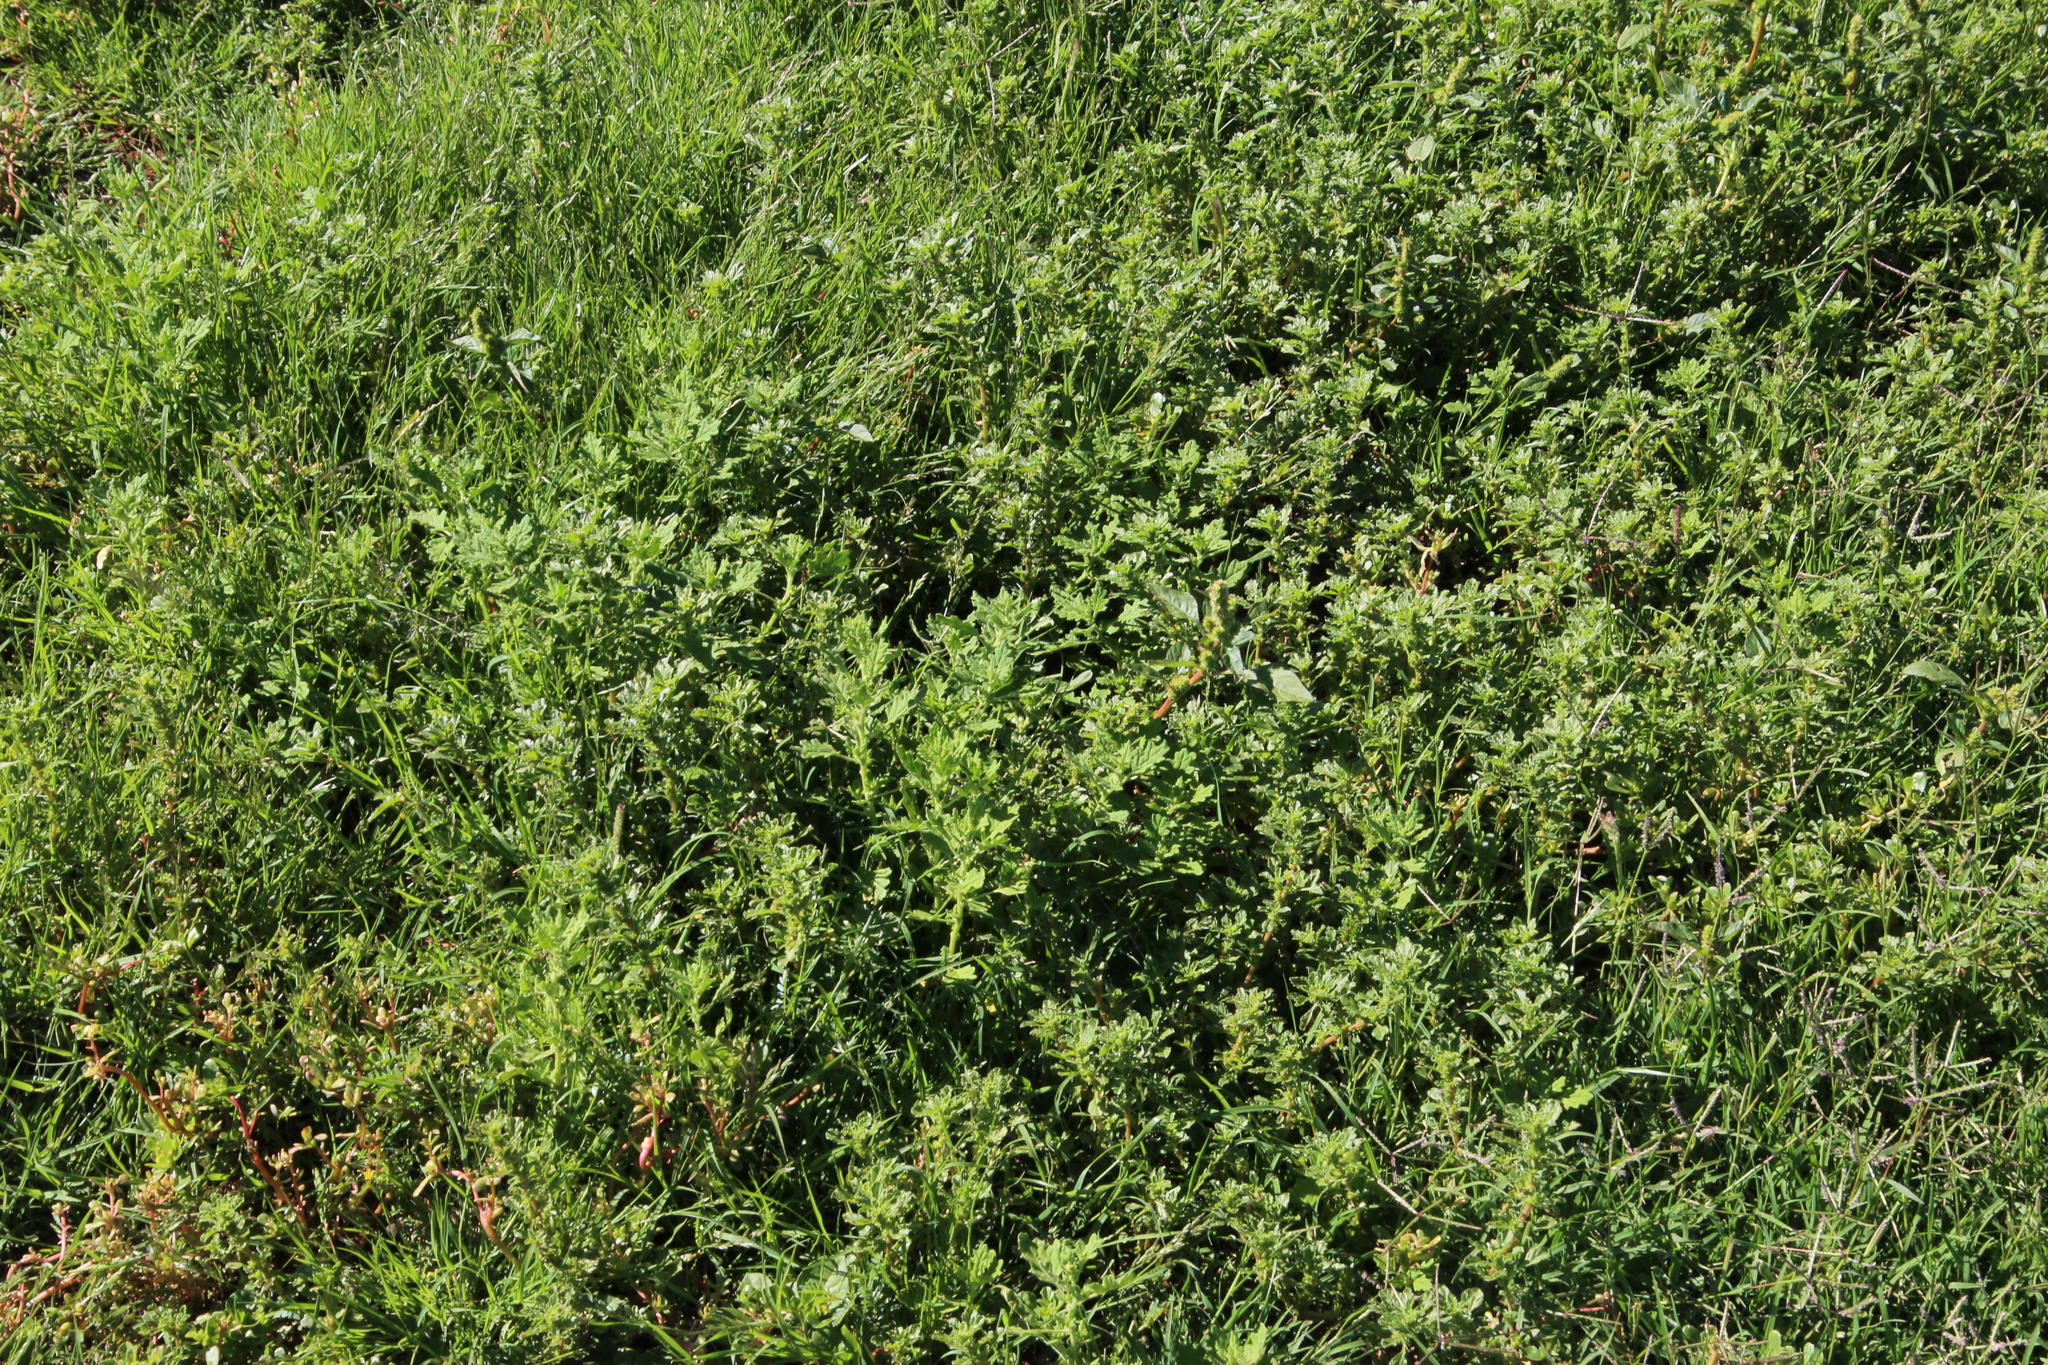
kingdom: Plantae
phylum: Tracheophyta
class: Magnoliopsida
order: Caryophyllales
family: Amaranthaceae
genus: Amaranthus
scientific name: Amaranthus spinosus
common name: Spiny amaranth
